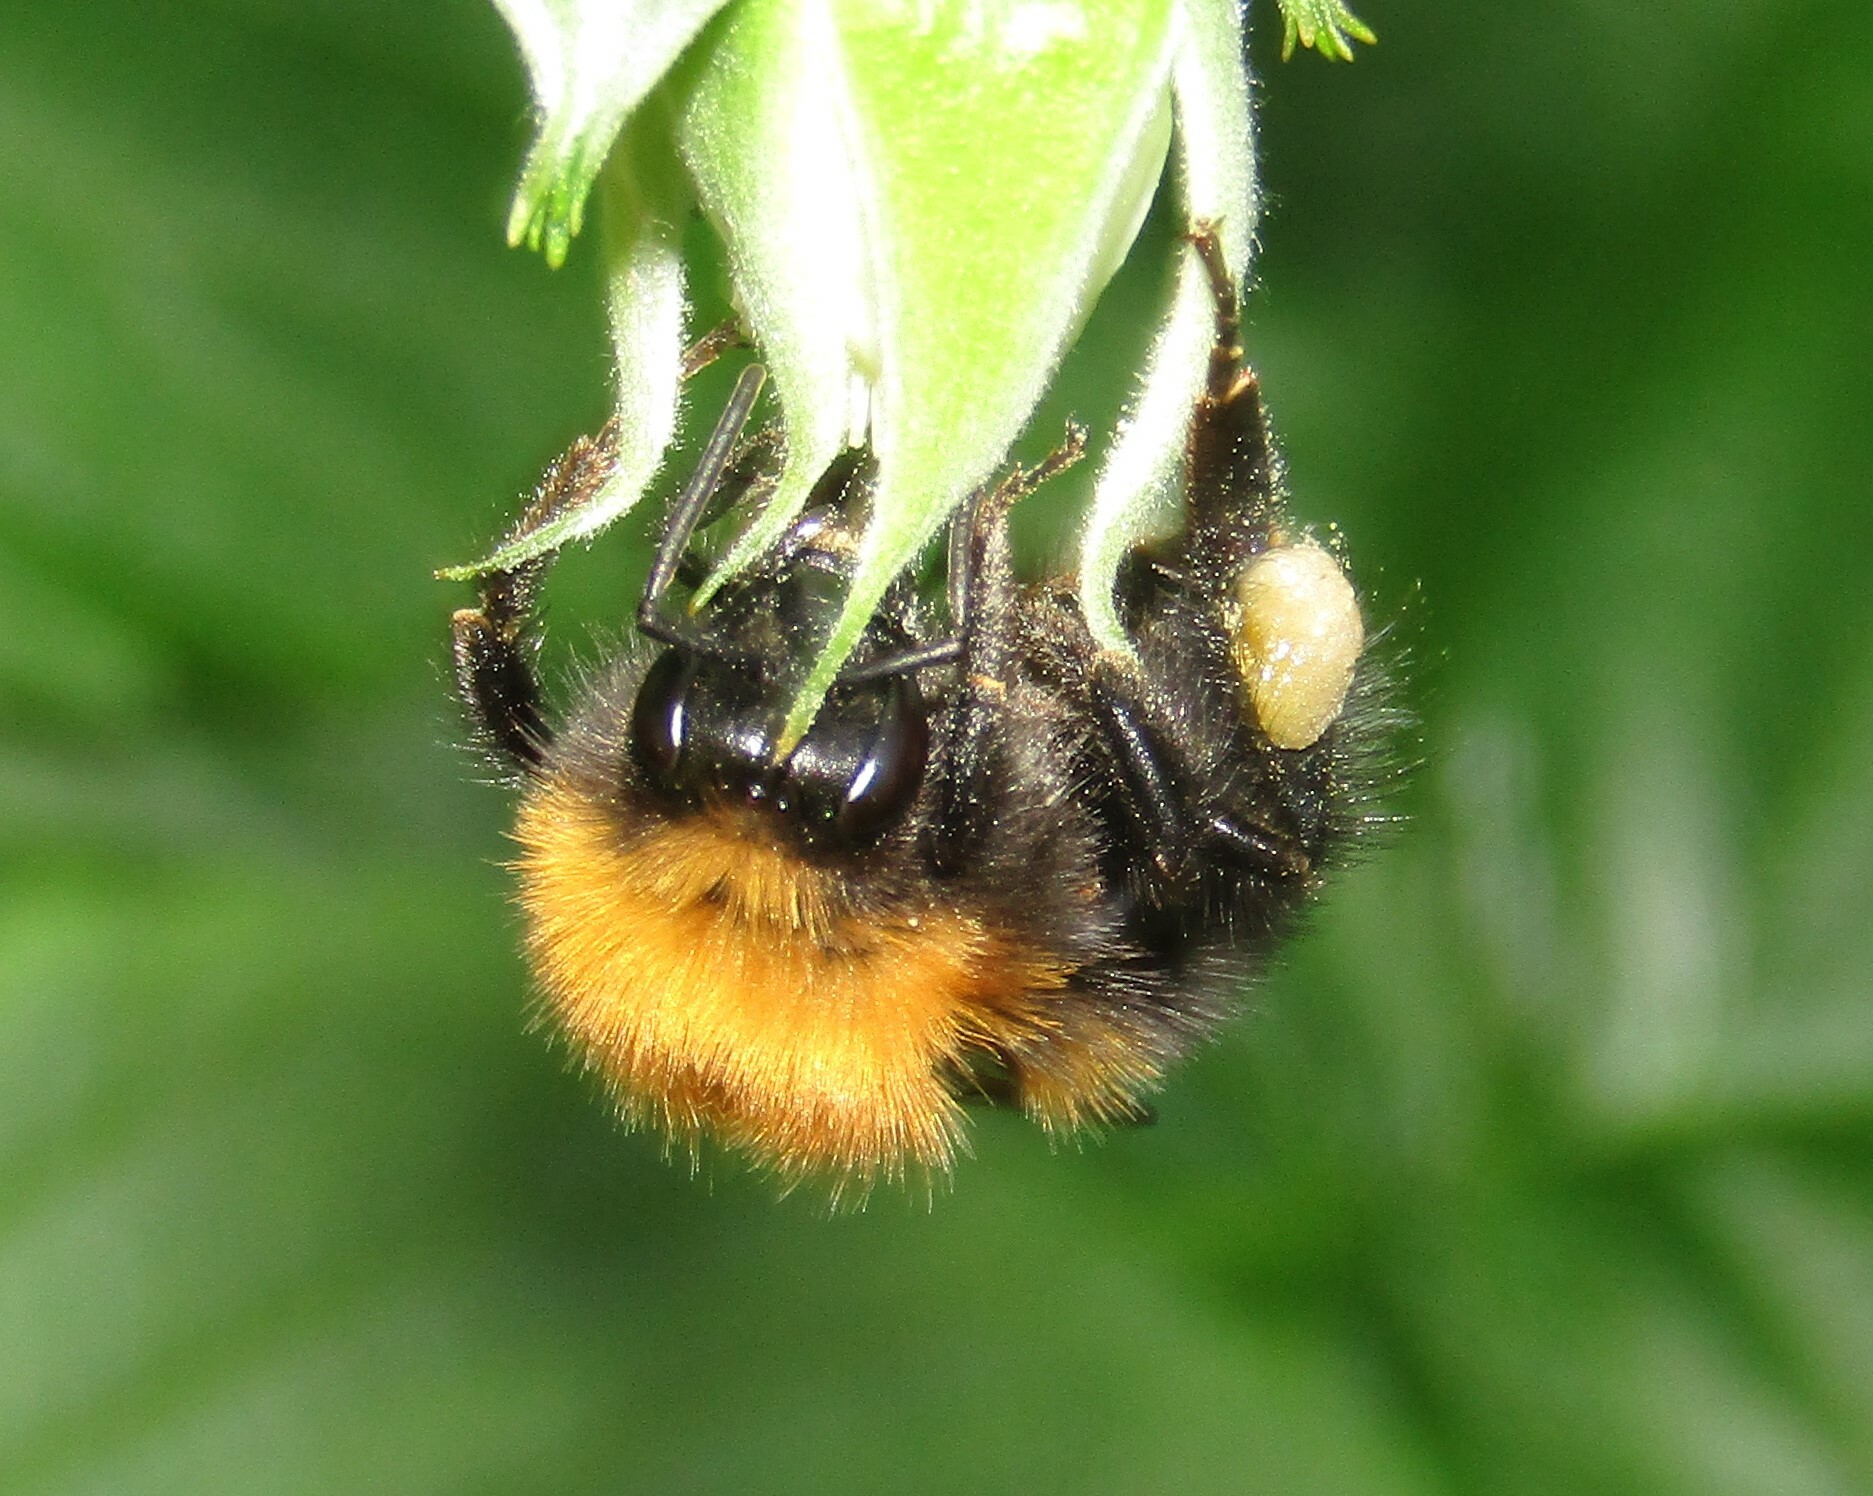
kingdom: Animalia
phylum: Arthropoda
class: Insecta
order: Hymenoptera
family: Apidae
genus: Bombus
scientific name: Bombus hypnorum
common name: New garden bumblebee
